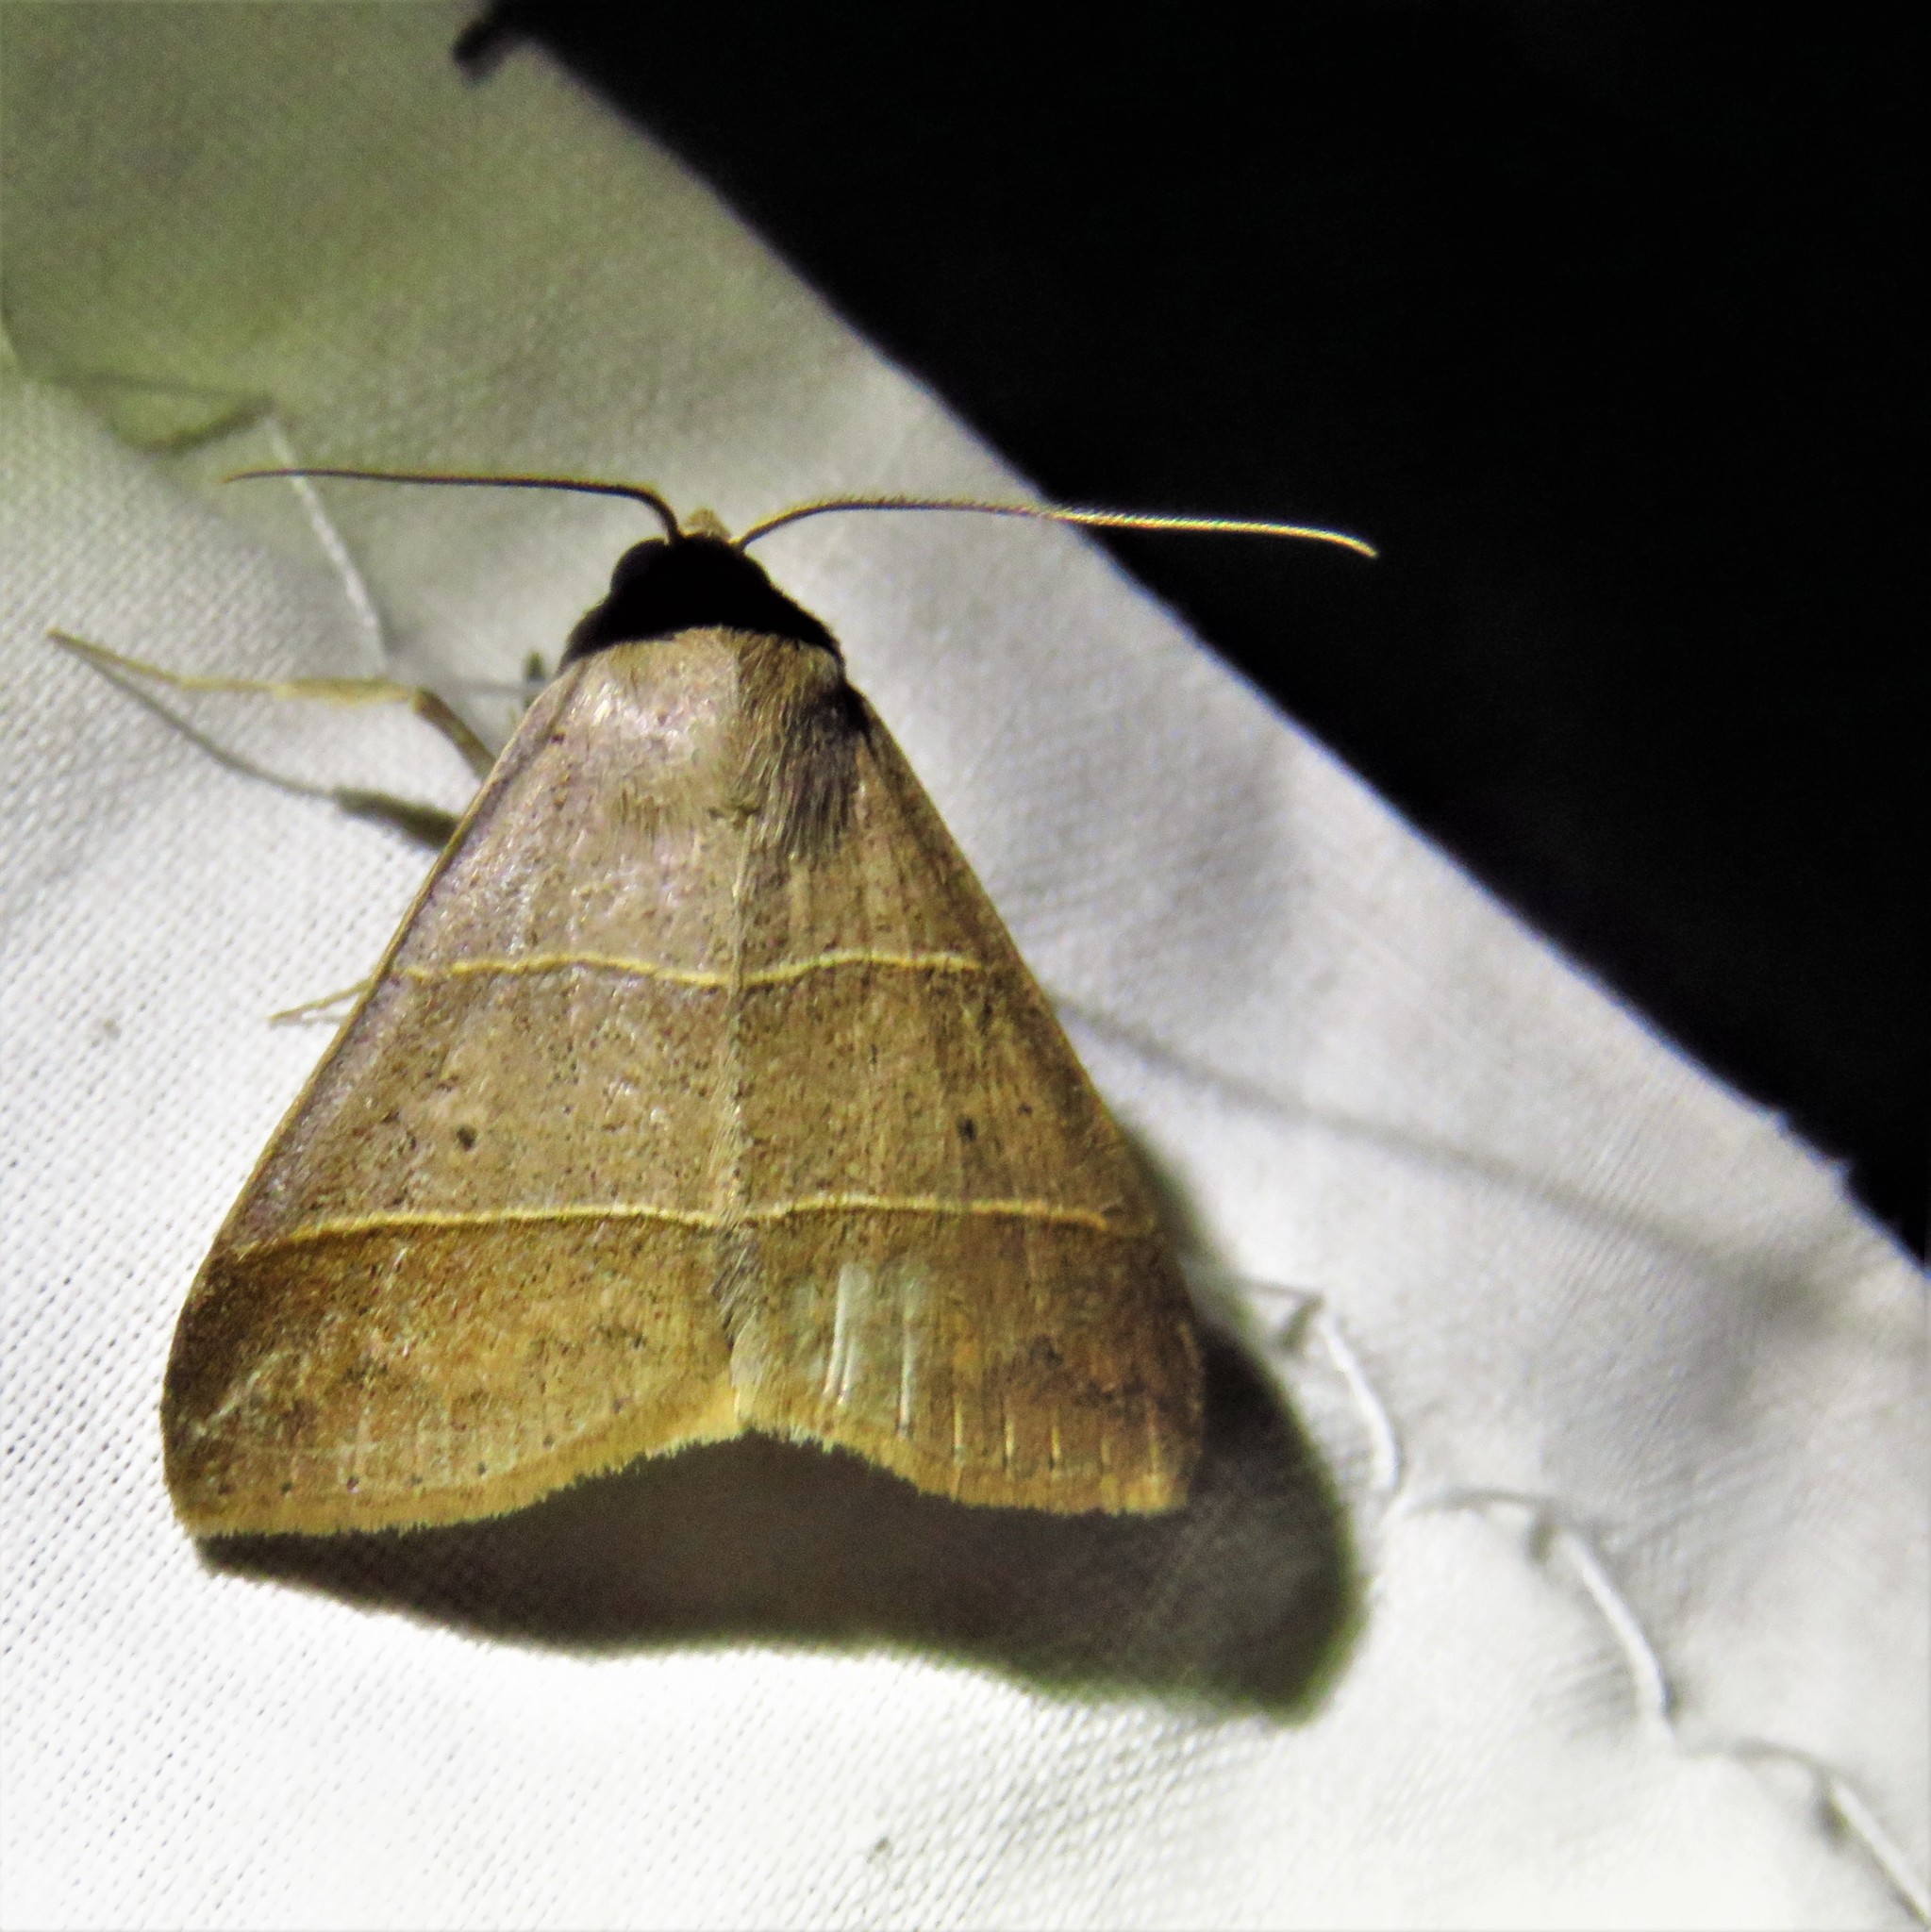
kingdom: Animalia
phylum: Arthropoda
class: Insecta
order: Lepidoptera
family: Erebidae
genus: Baniana
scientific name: Baniana ostia
